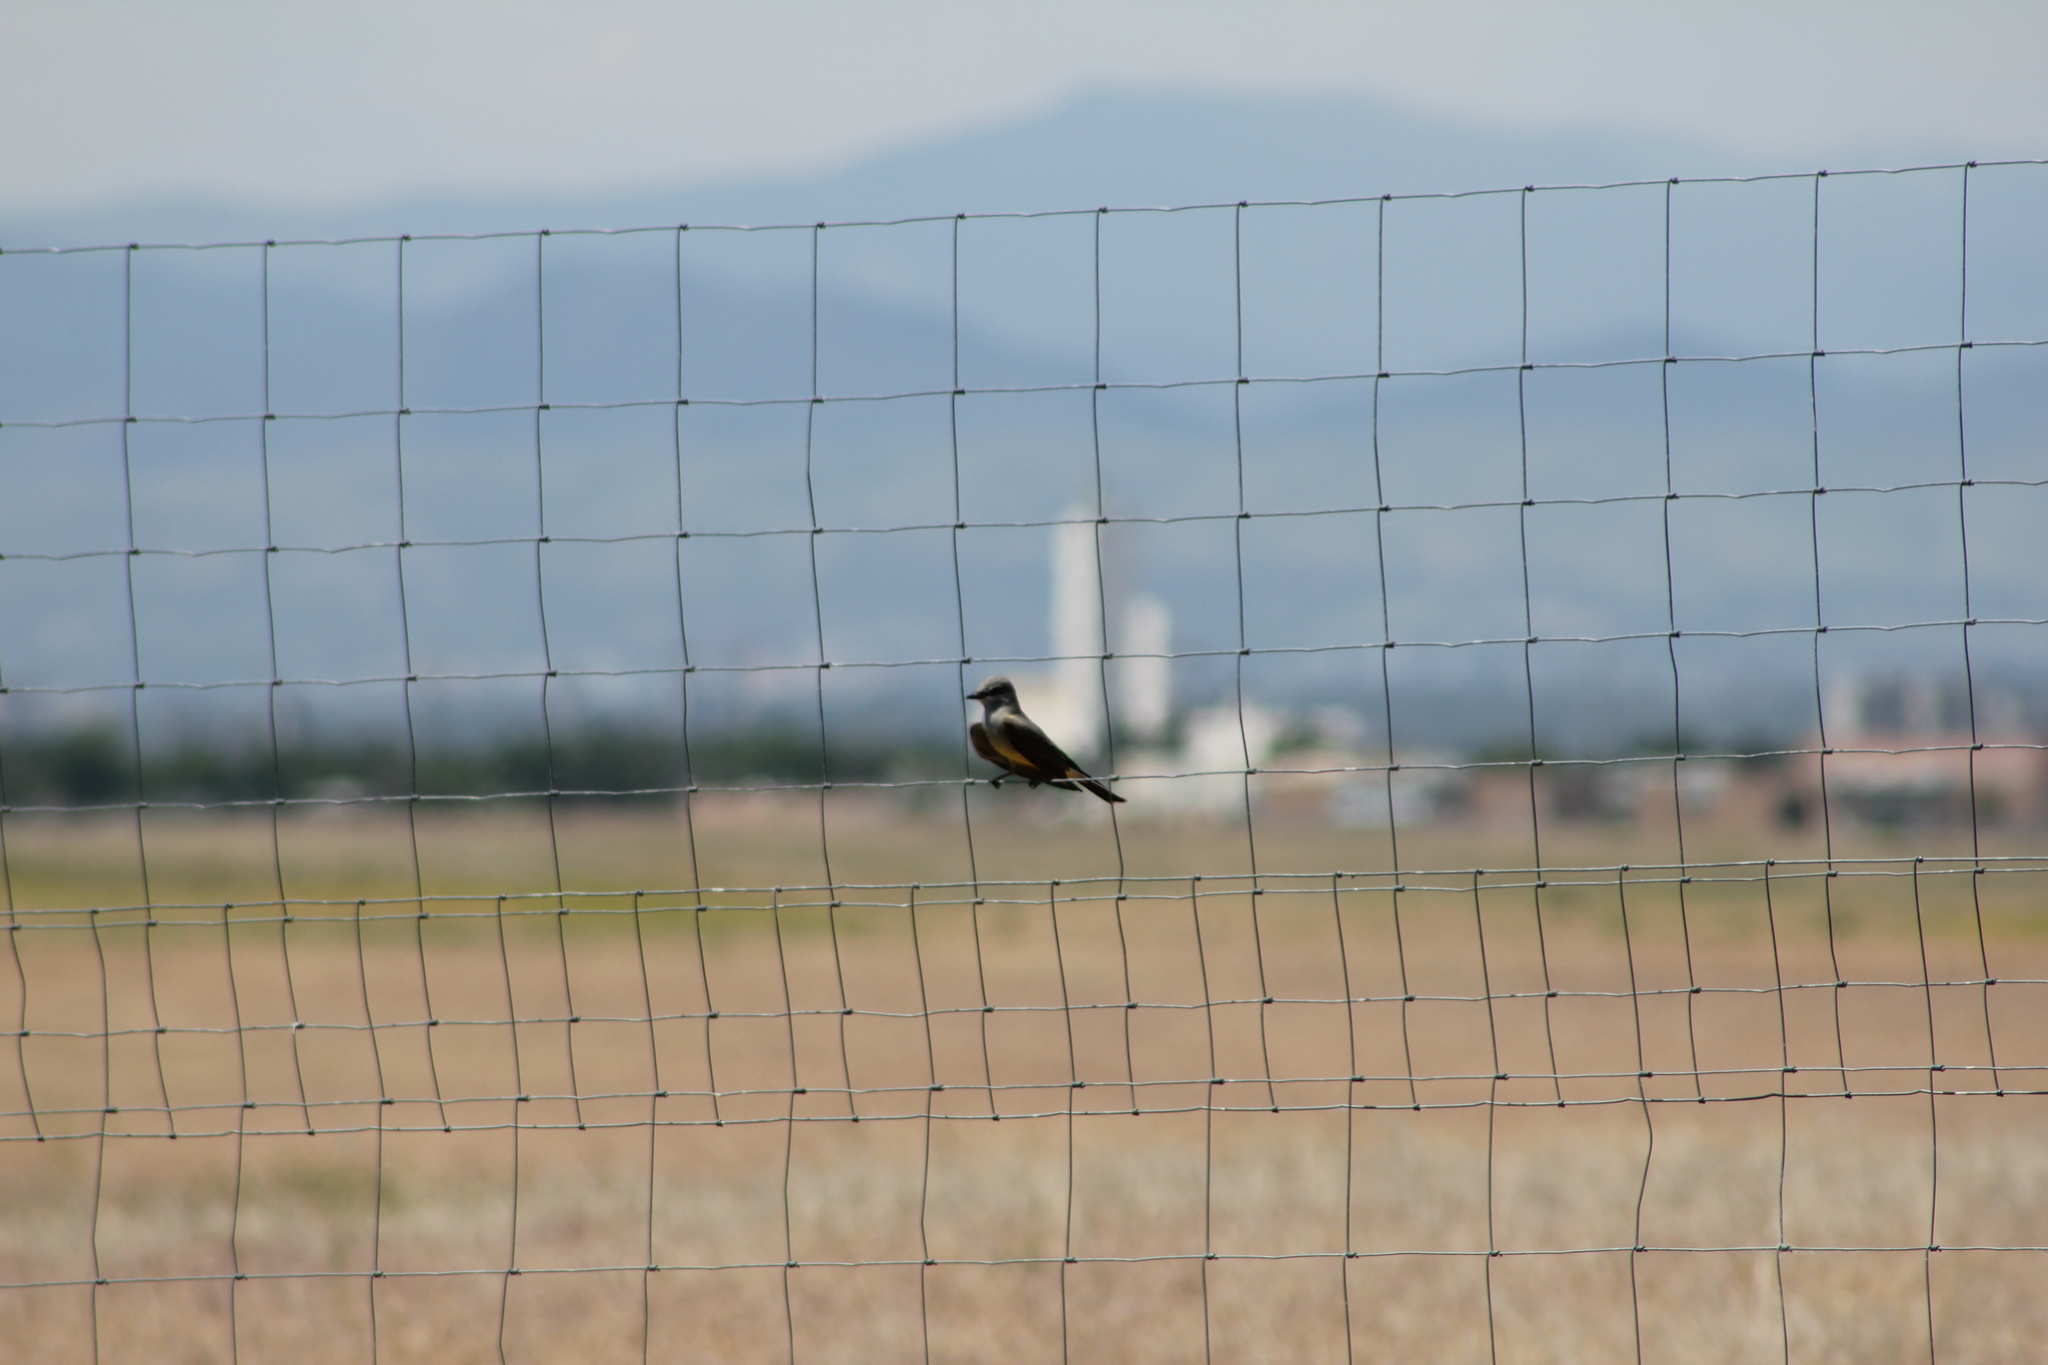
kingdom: Animalia
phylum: Chordata
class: Aves
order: Passeriformes
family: Tyrannidae
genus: Tyrannus
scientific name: Tyrannus verticalis
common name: Western kingbird
